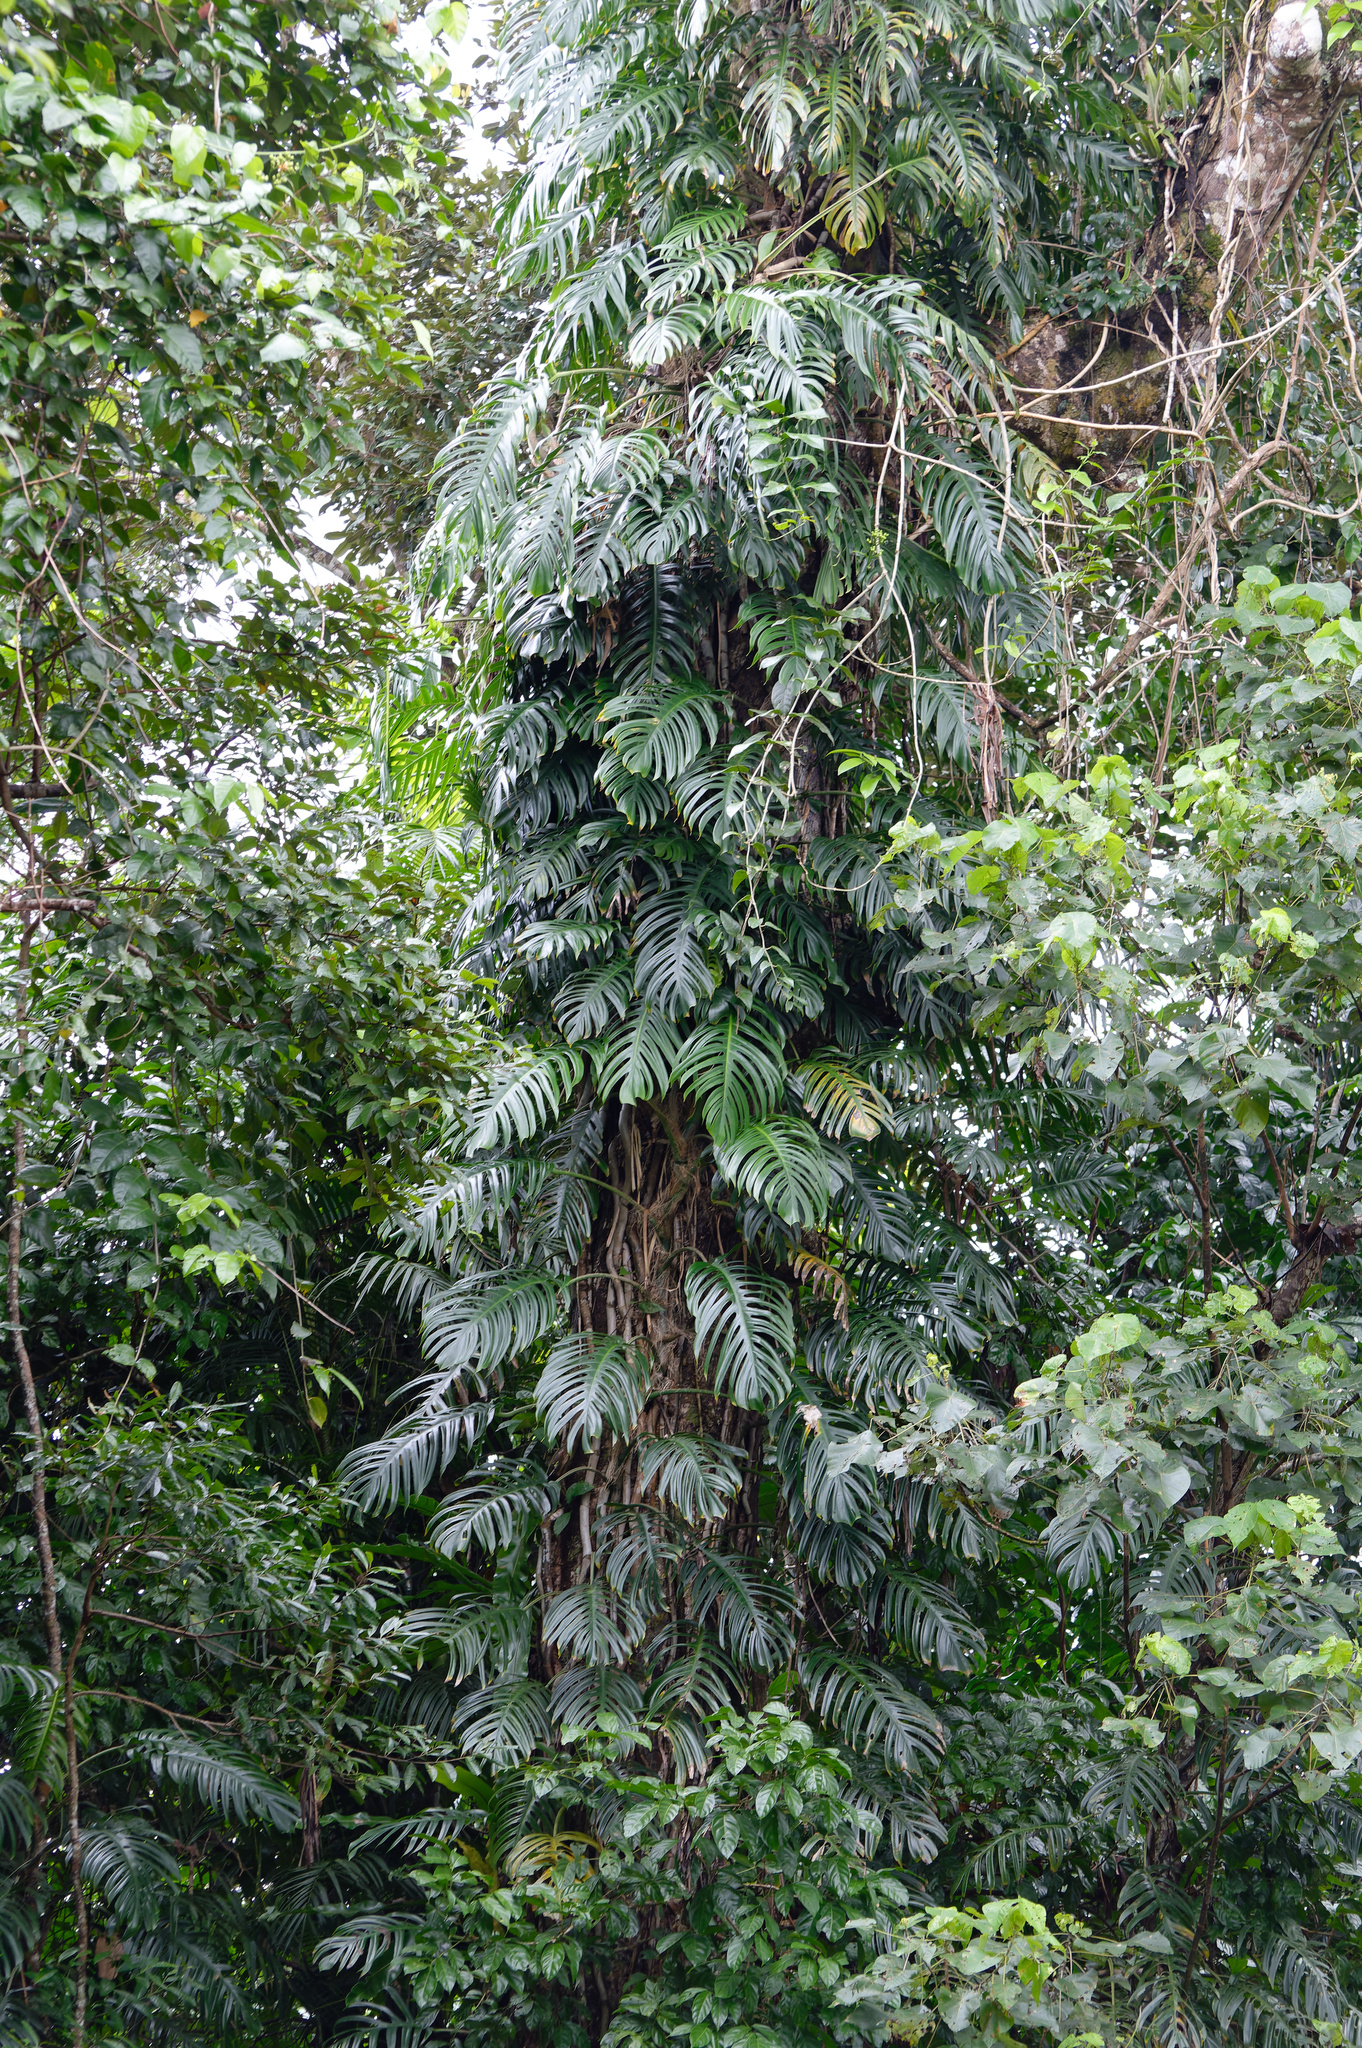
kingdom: Plantae
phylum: Tracheophyta
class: Liliopsida
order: Alismatales
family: Araceae
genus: Epipremnum
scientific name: Epipremnum pinnatum
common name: Centipede tongavine
